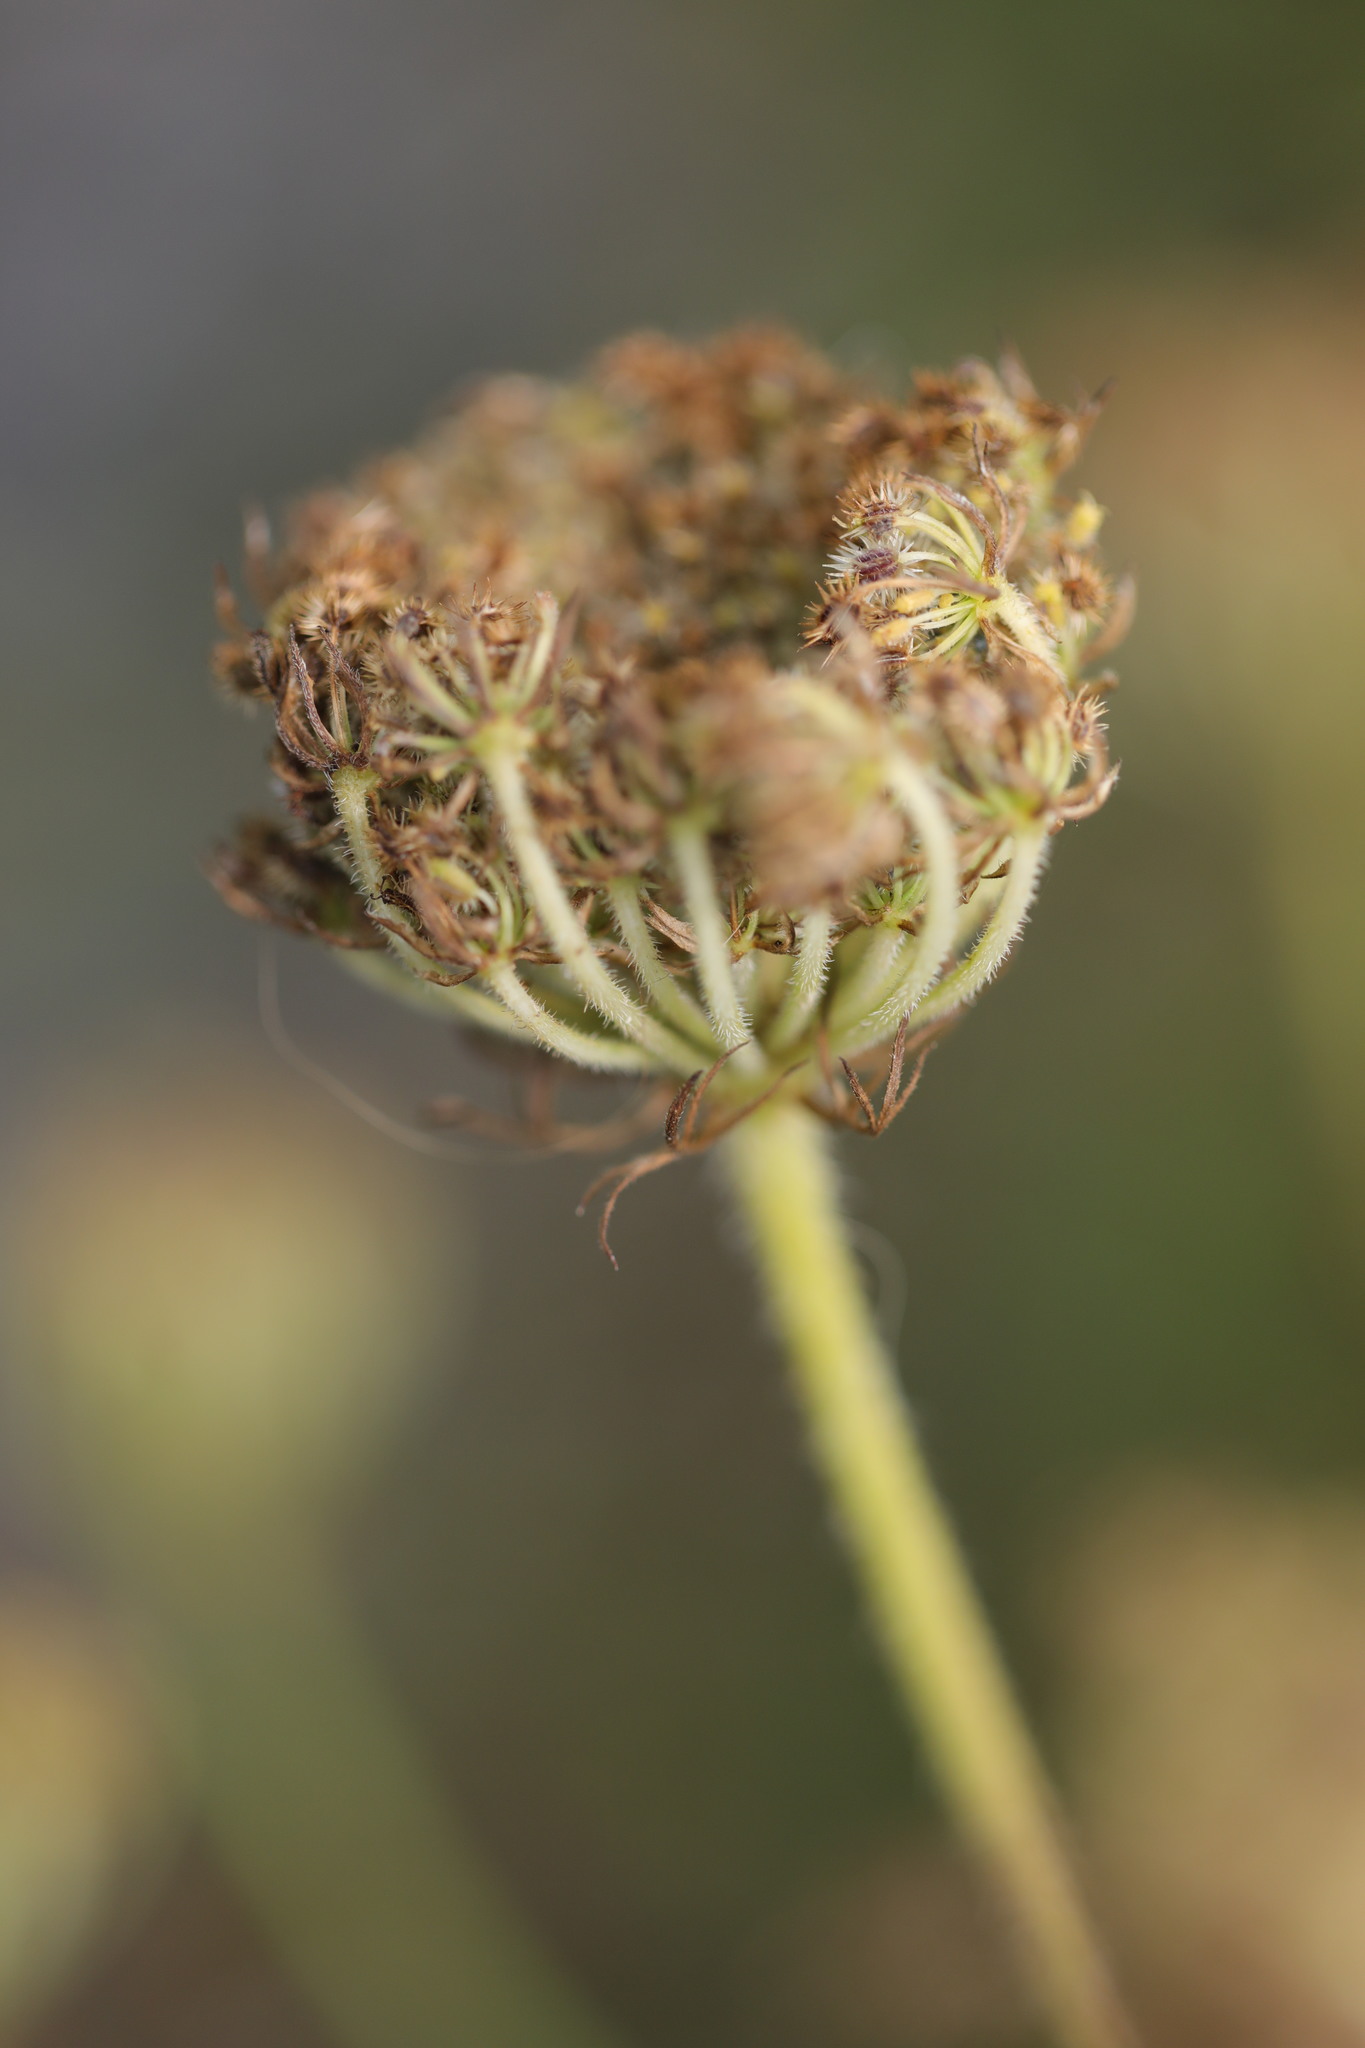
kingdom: Plantae
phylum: Tracheophyta
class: Magnoliopsida
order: Apiales
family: Apiaceae
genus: Daucus
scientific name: Daucus carota
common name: Wild carrot
